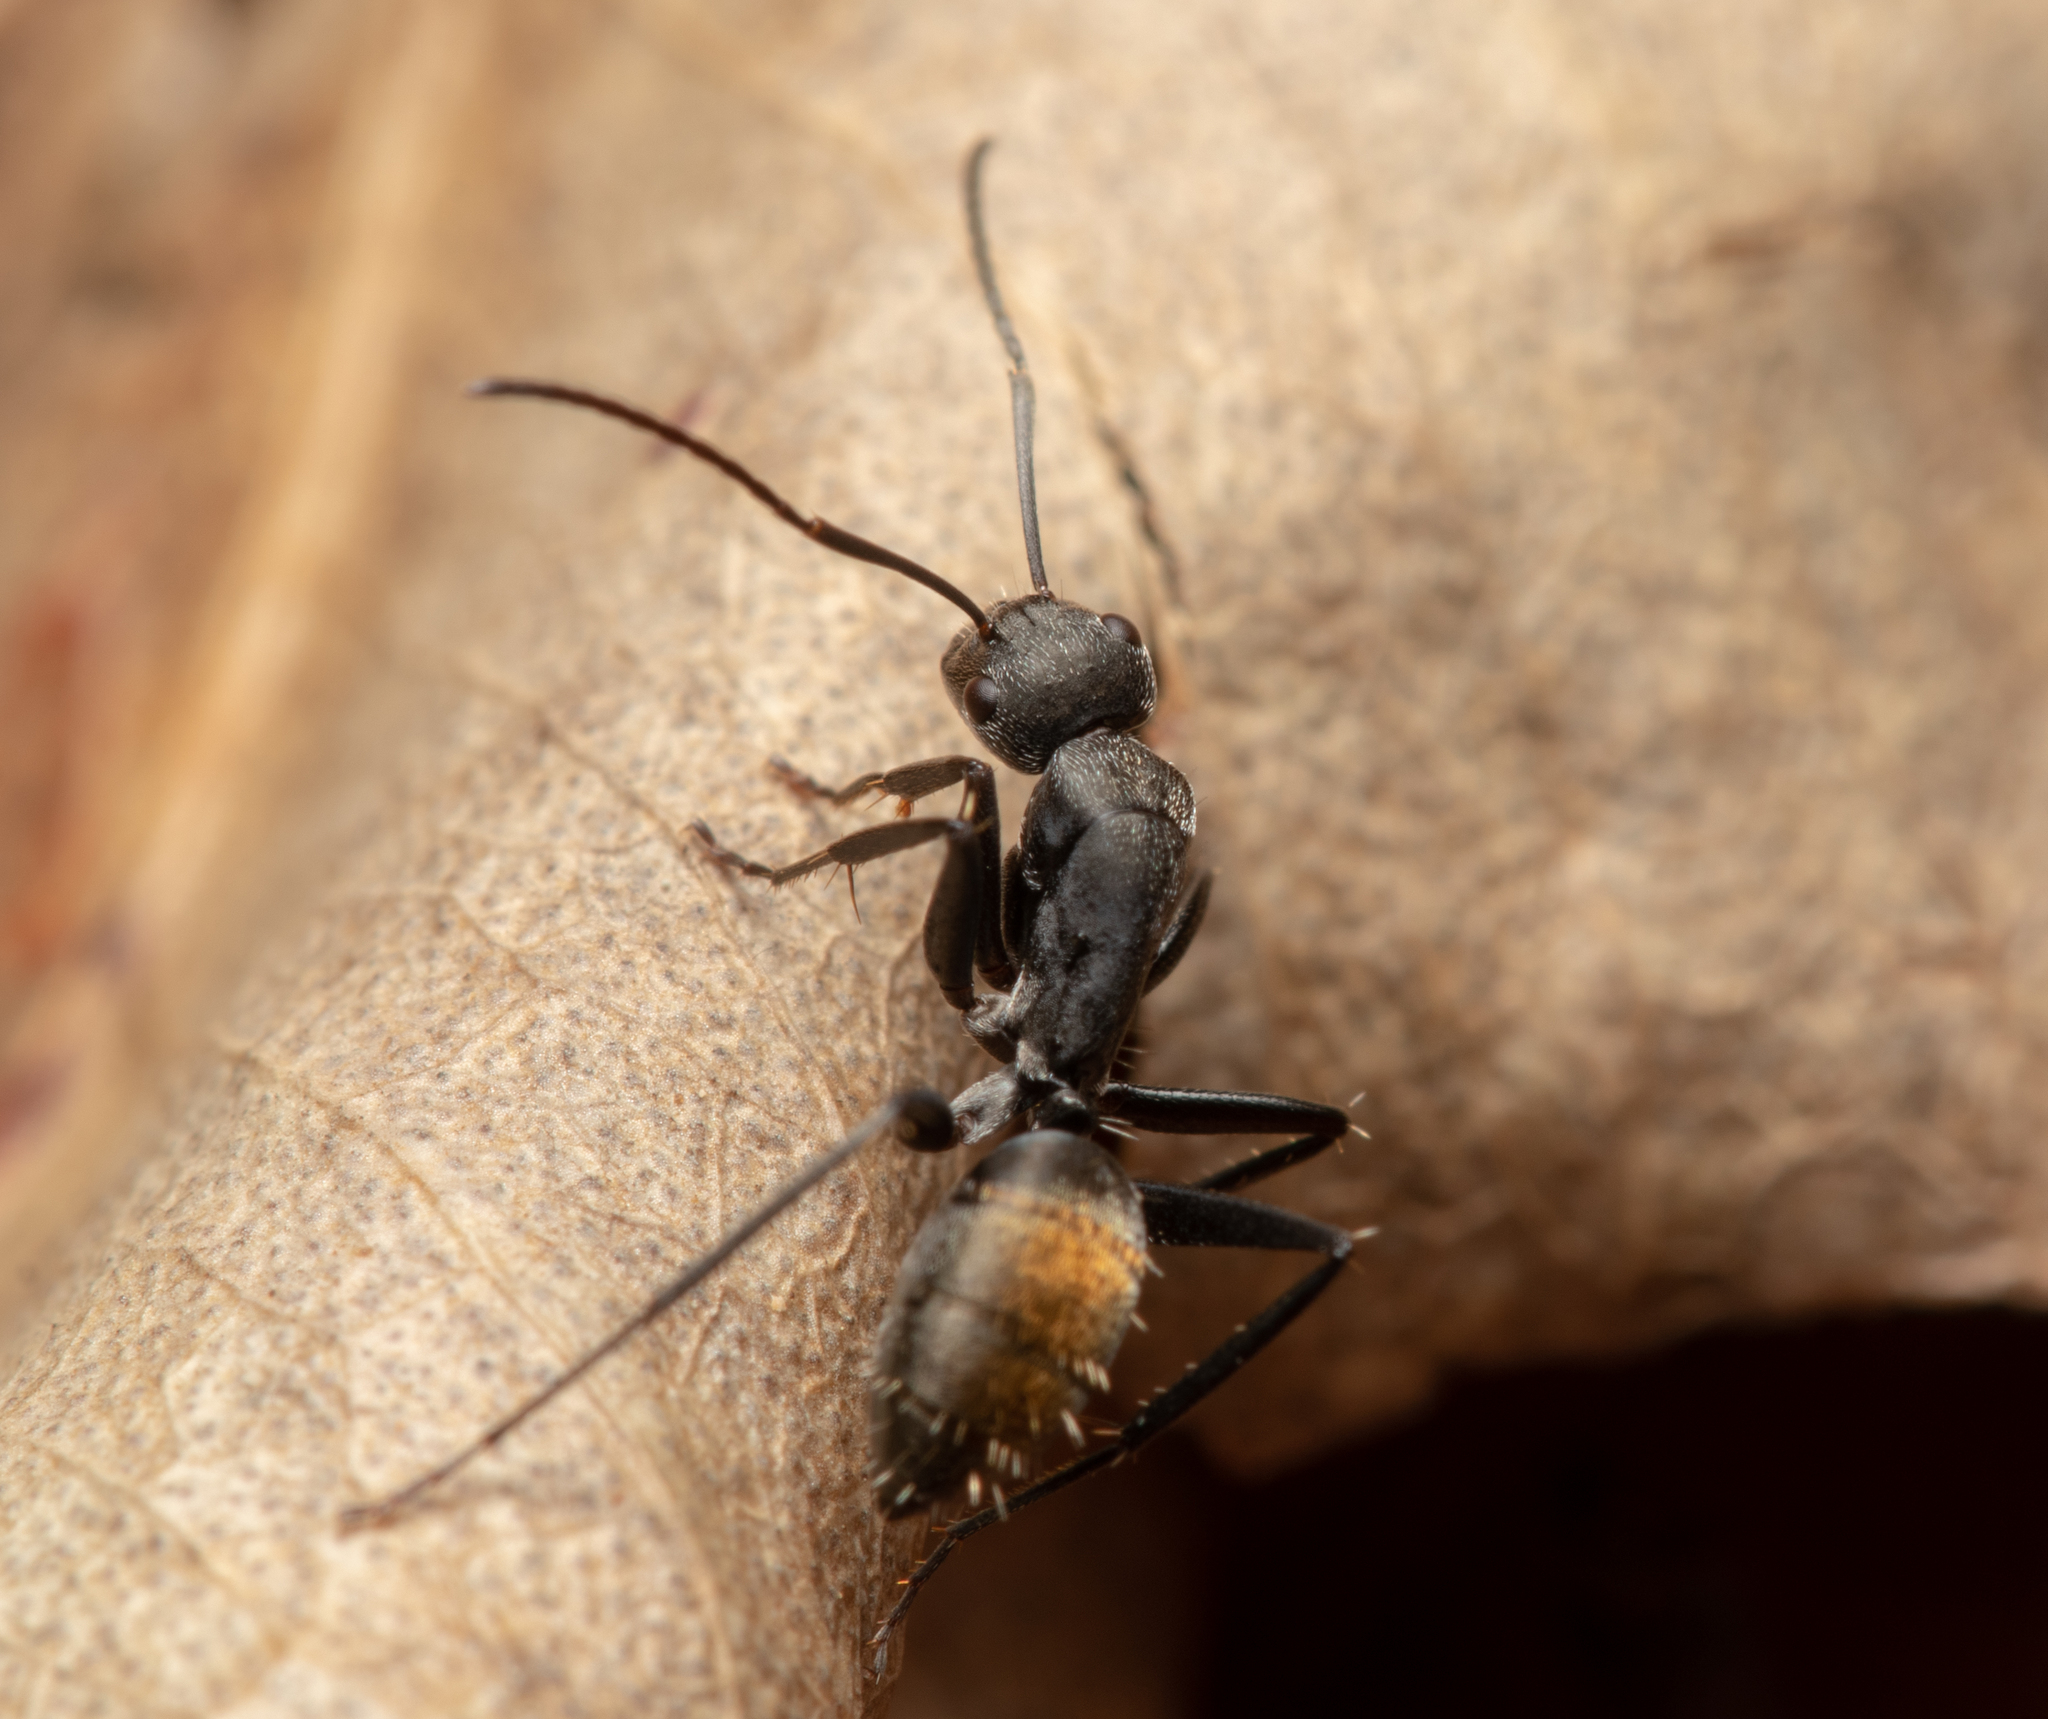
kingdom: Animalia
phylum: Arthropoda
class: Insecta
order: Hymenoptera
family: Formicidae
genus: Camponotus
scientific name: Camponotus aeneopilosus
